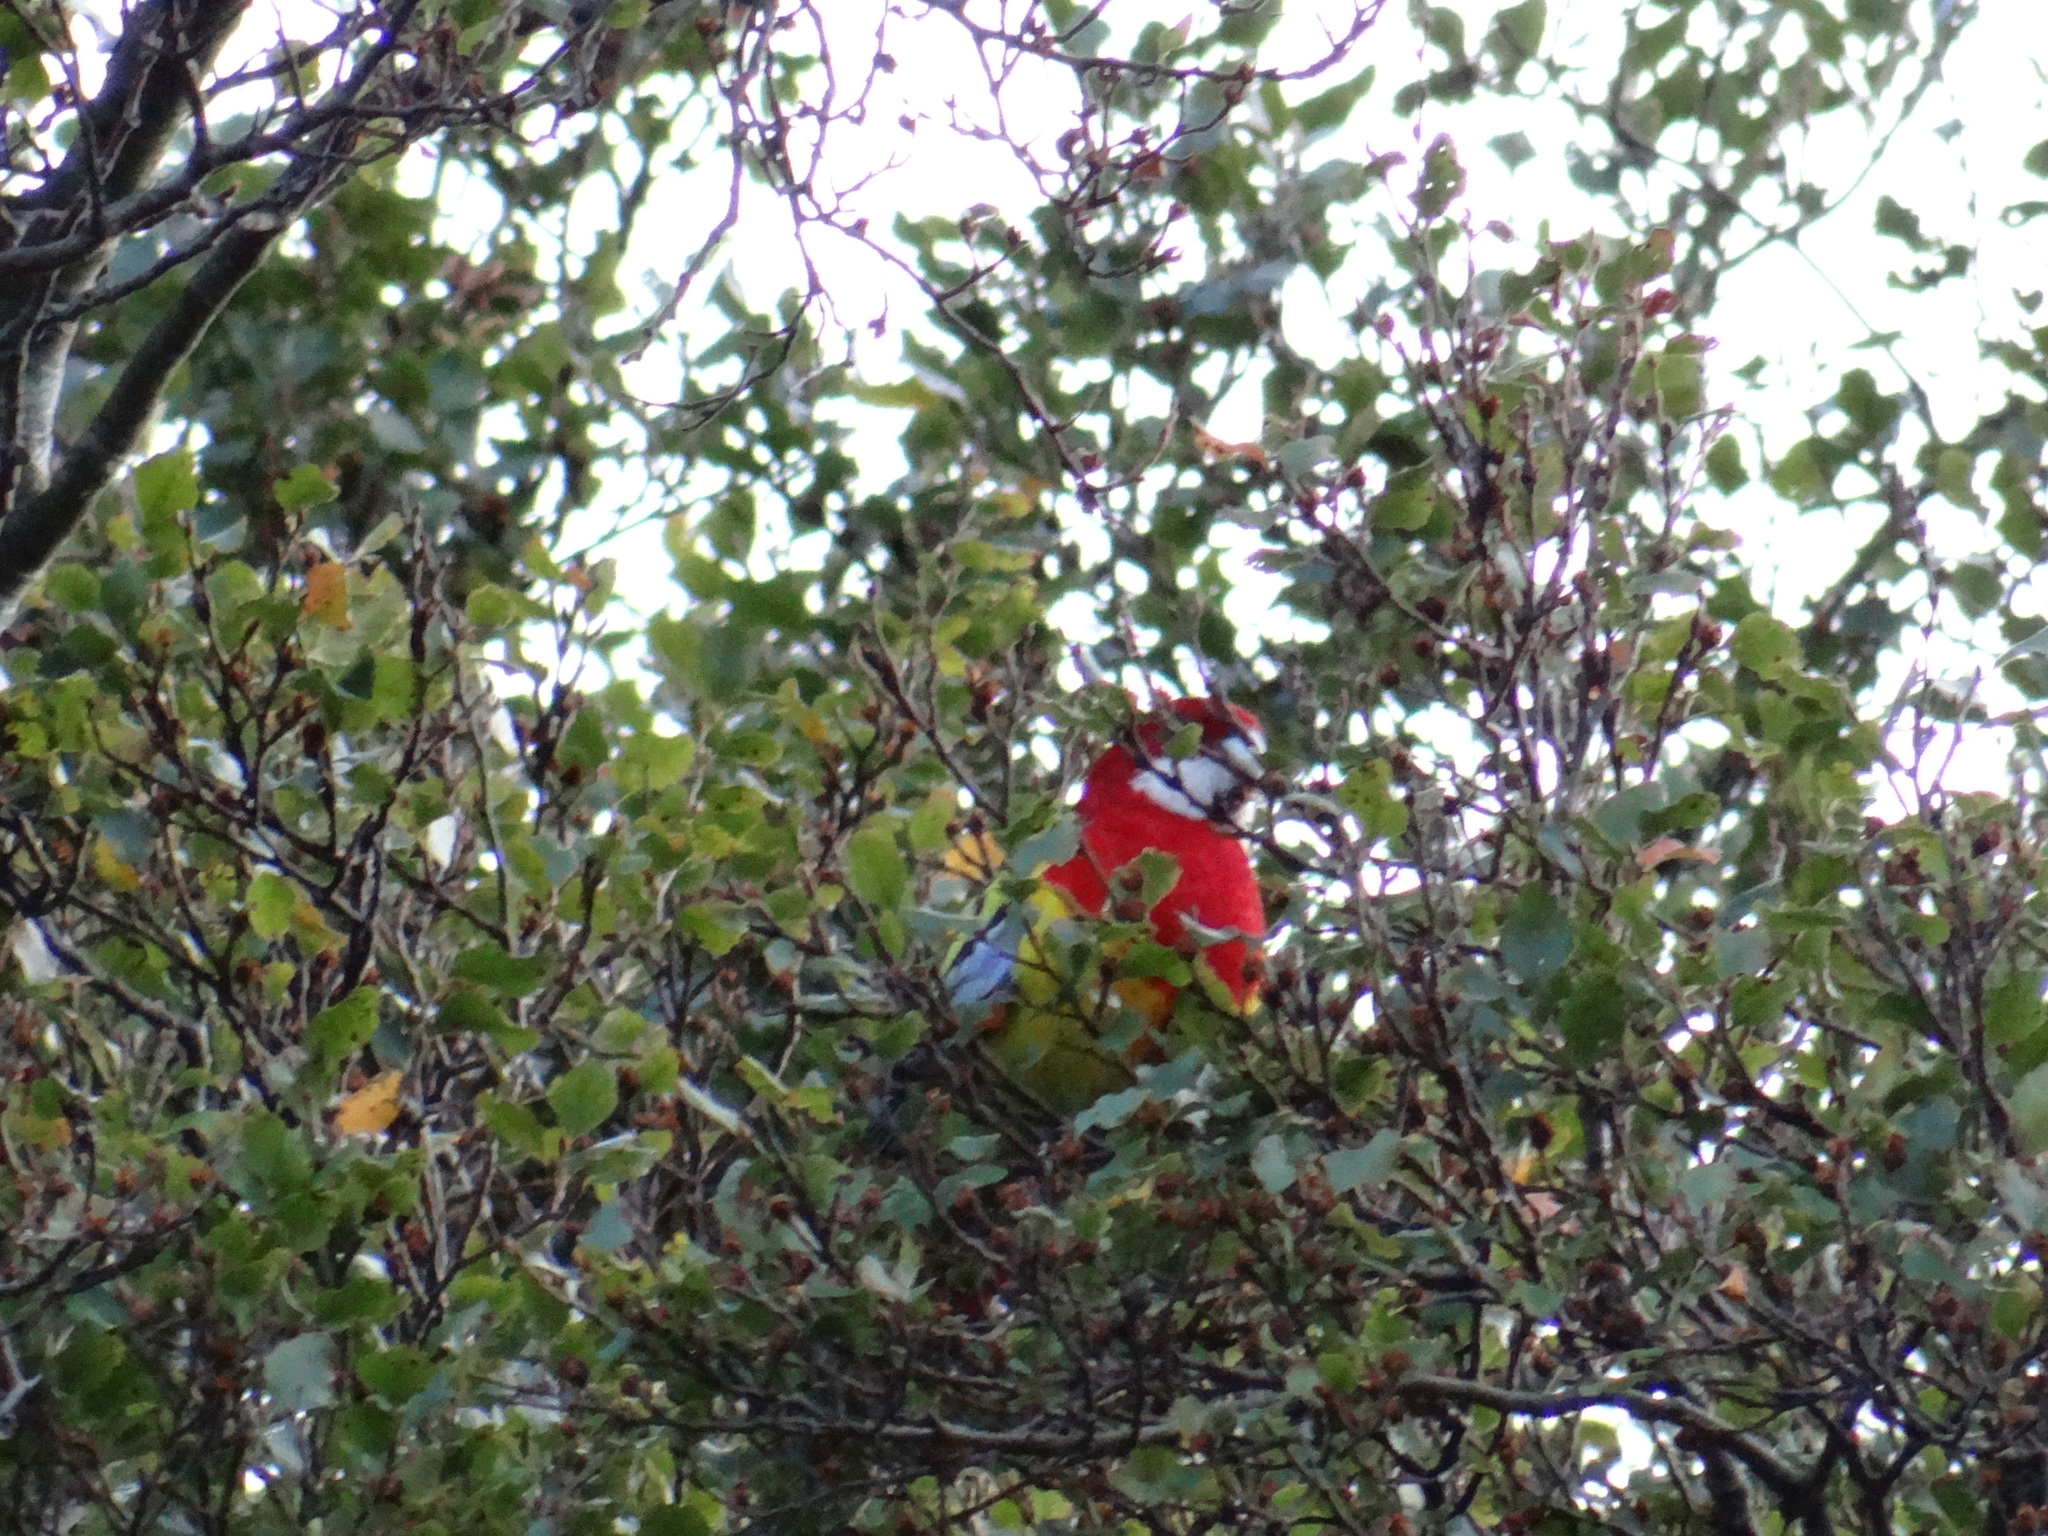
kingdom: Animalia
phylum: Chordata
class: Aves
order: Psittaciformes
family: Psittacidae
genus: Platycercus
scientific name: Platycercus eximius
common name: Eastern rosella
